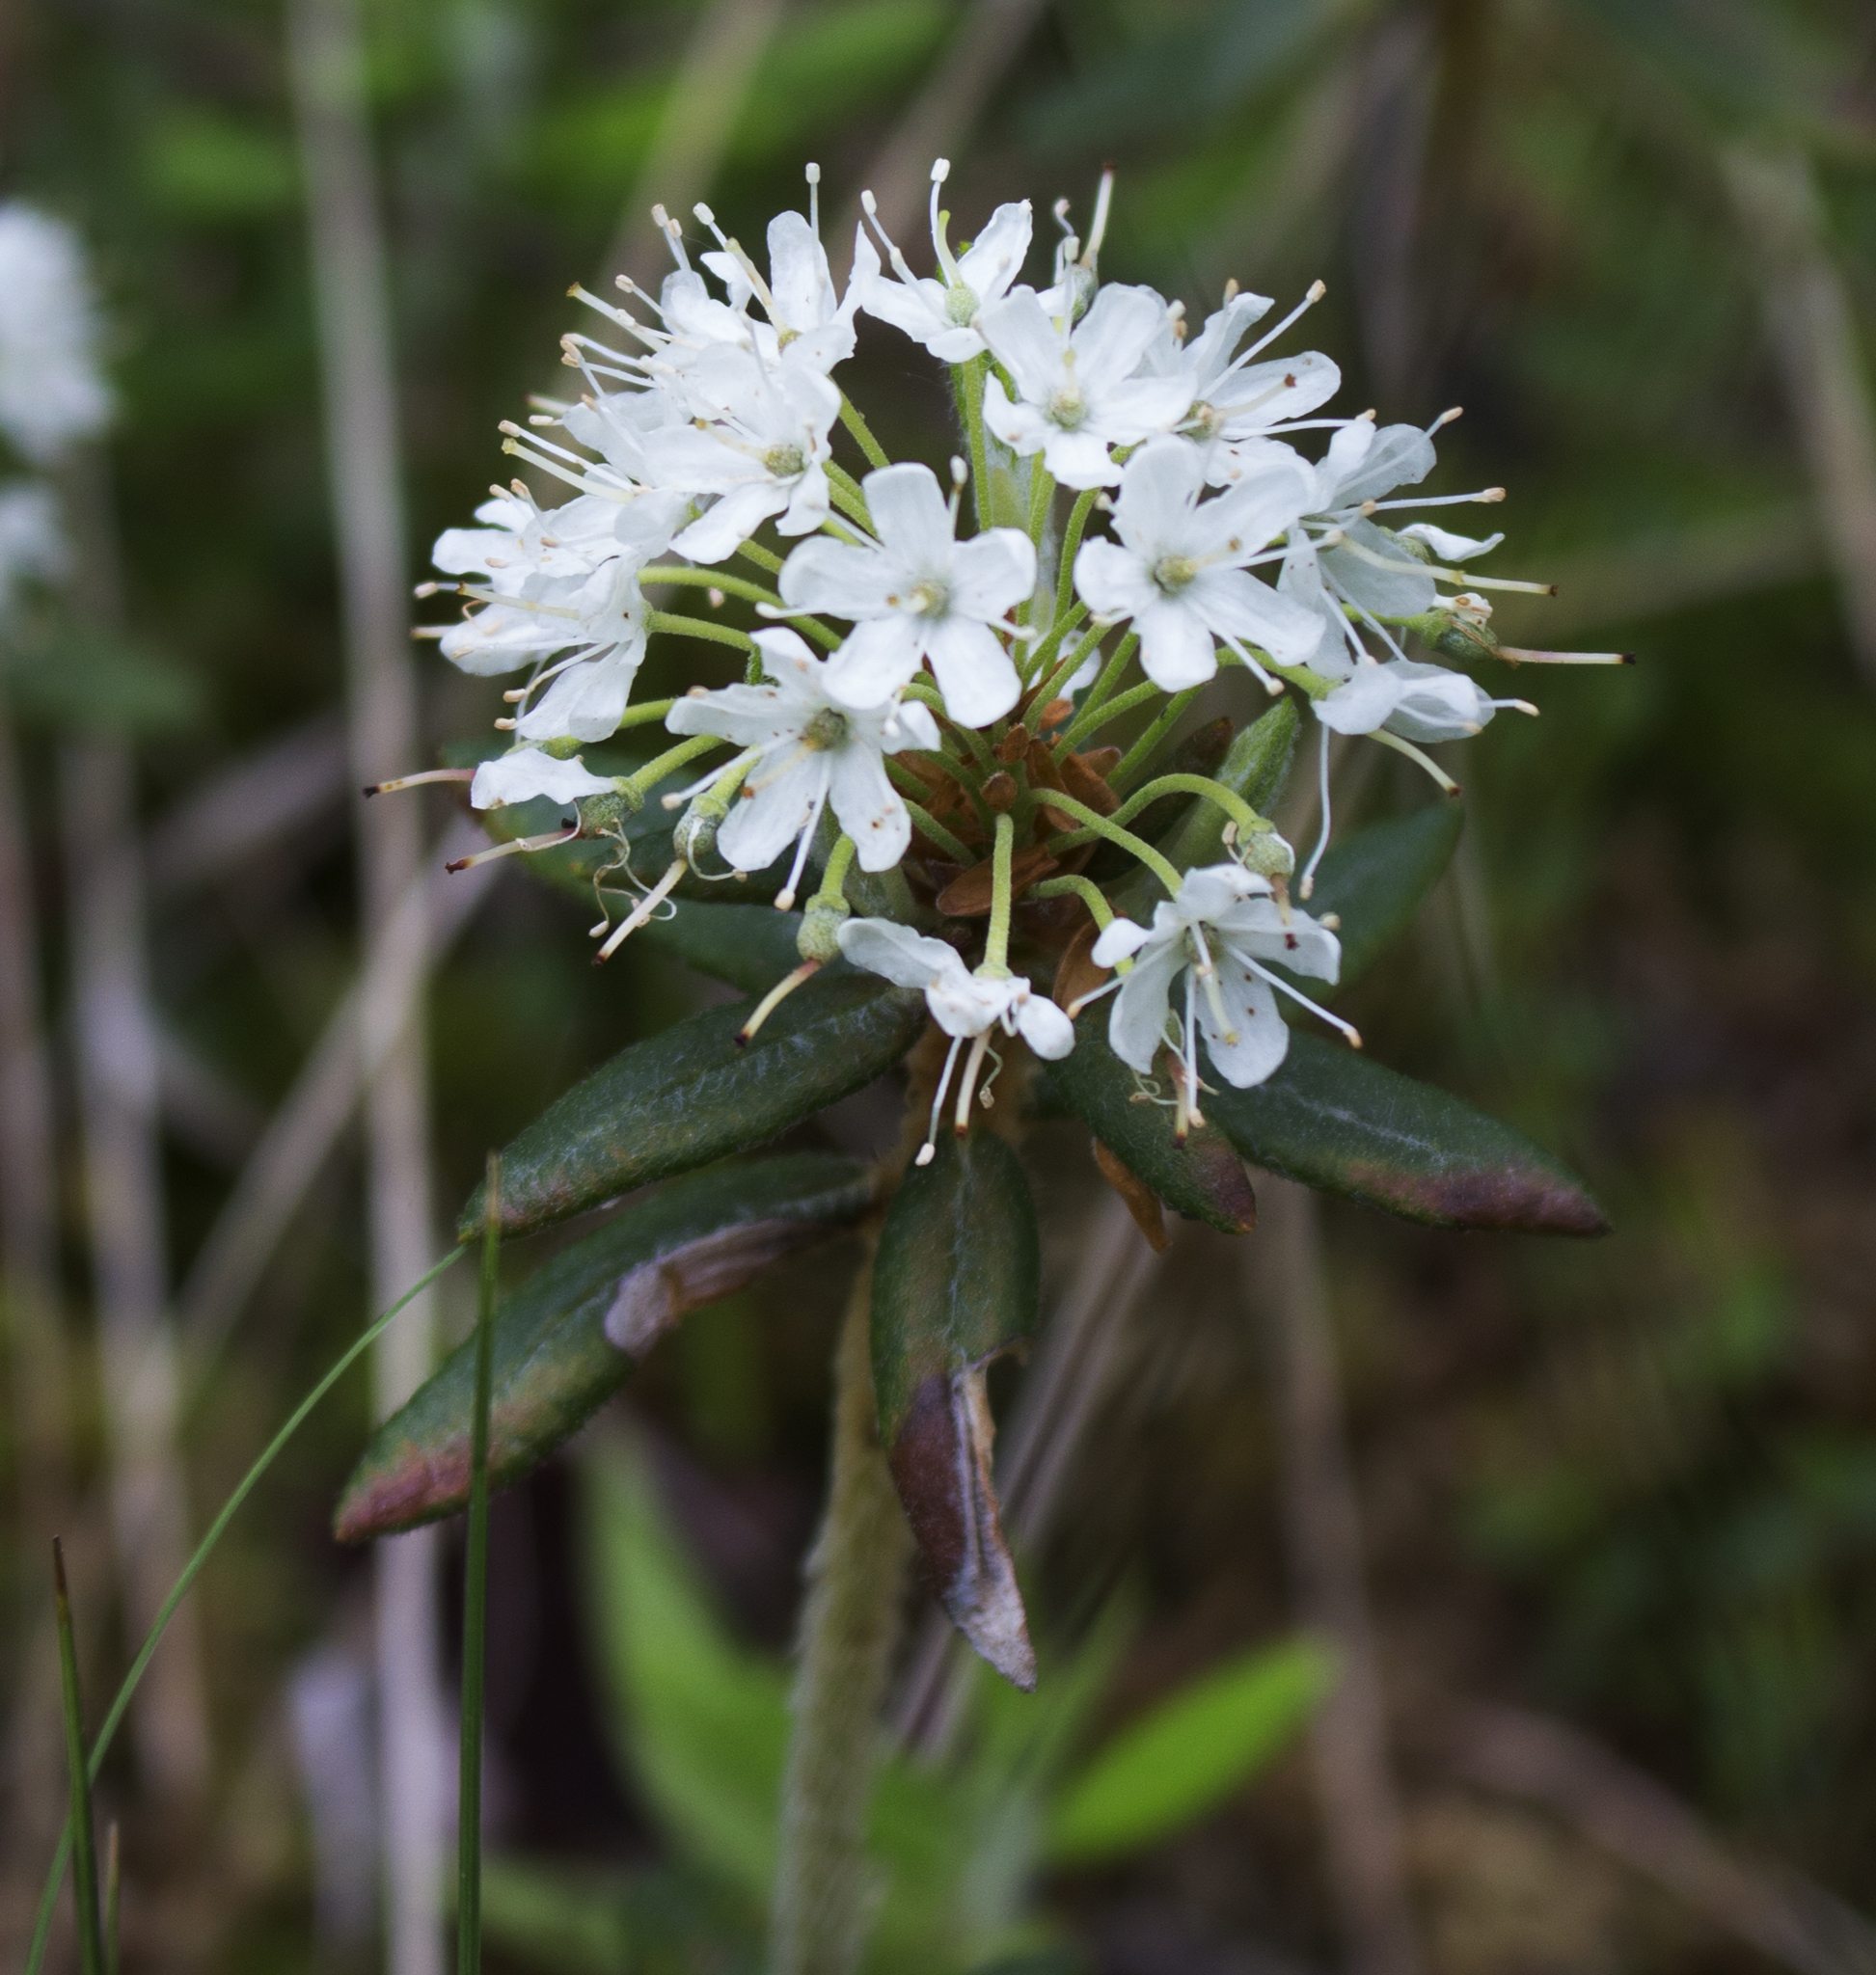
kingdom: Plantae
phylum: Tracheophyta
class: Magnoliopsida
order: Ericales
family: Ericaceae
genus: Rhododendron
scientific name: Rhododendron groenlandicum
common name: Bog labrador tea
